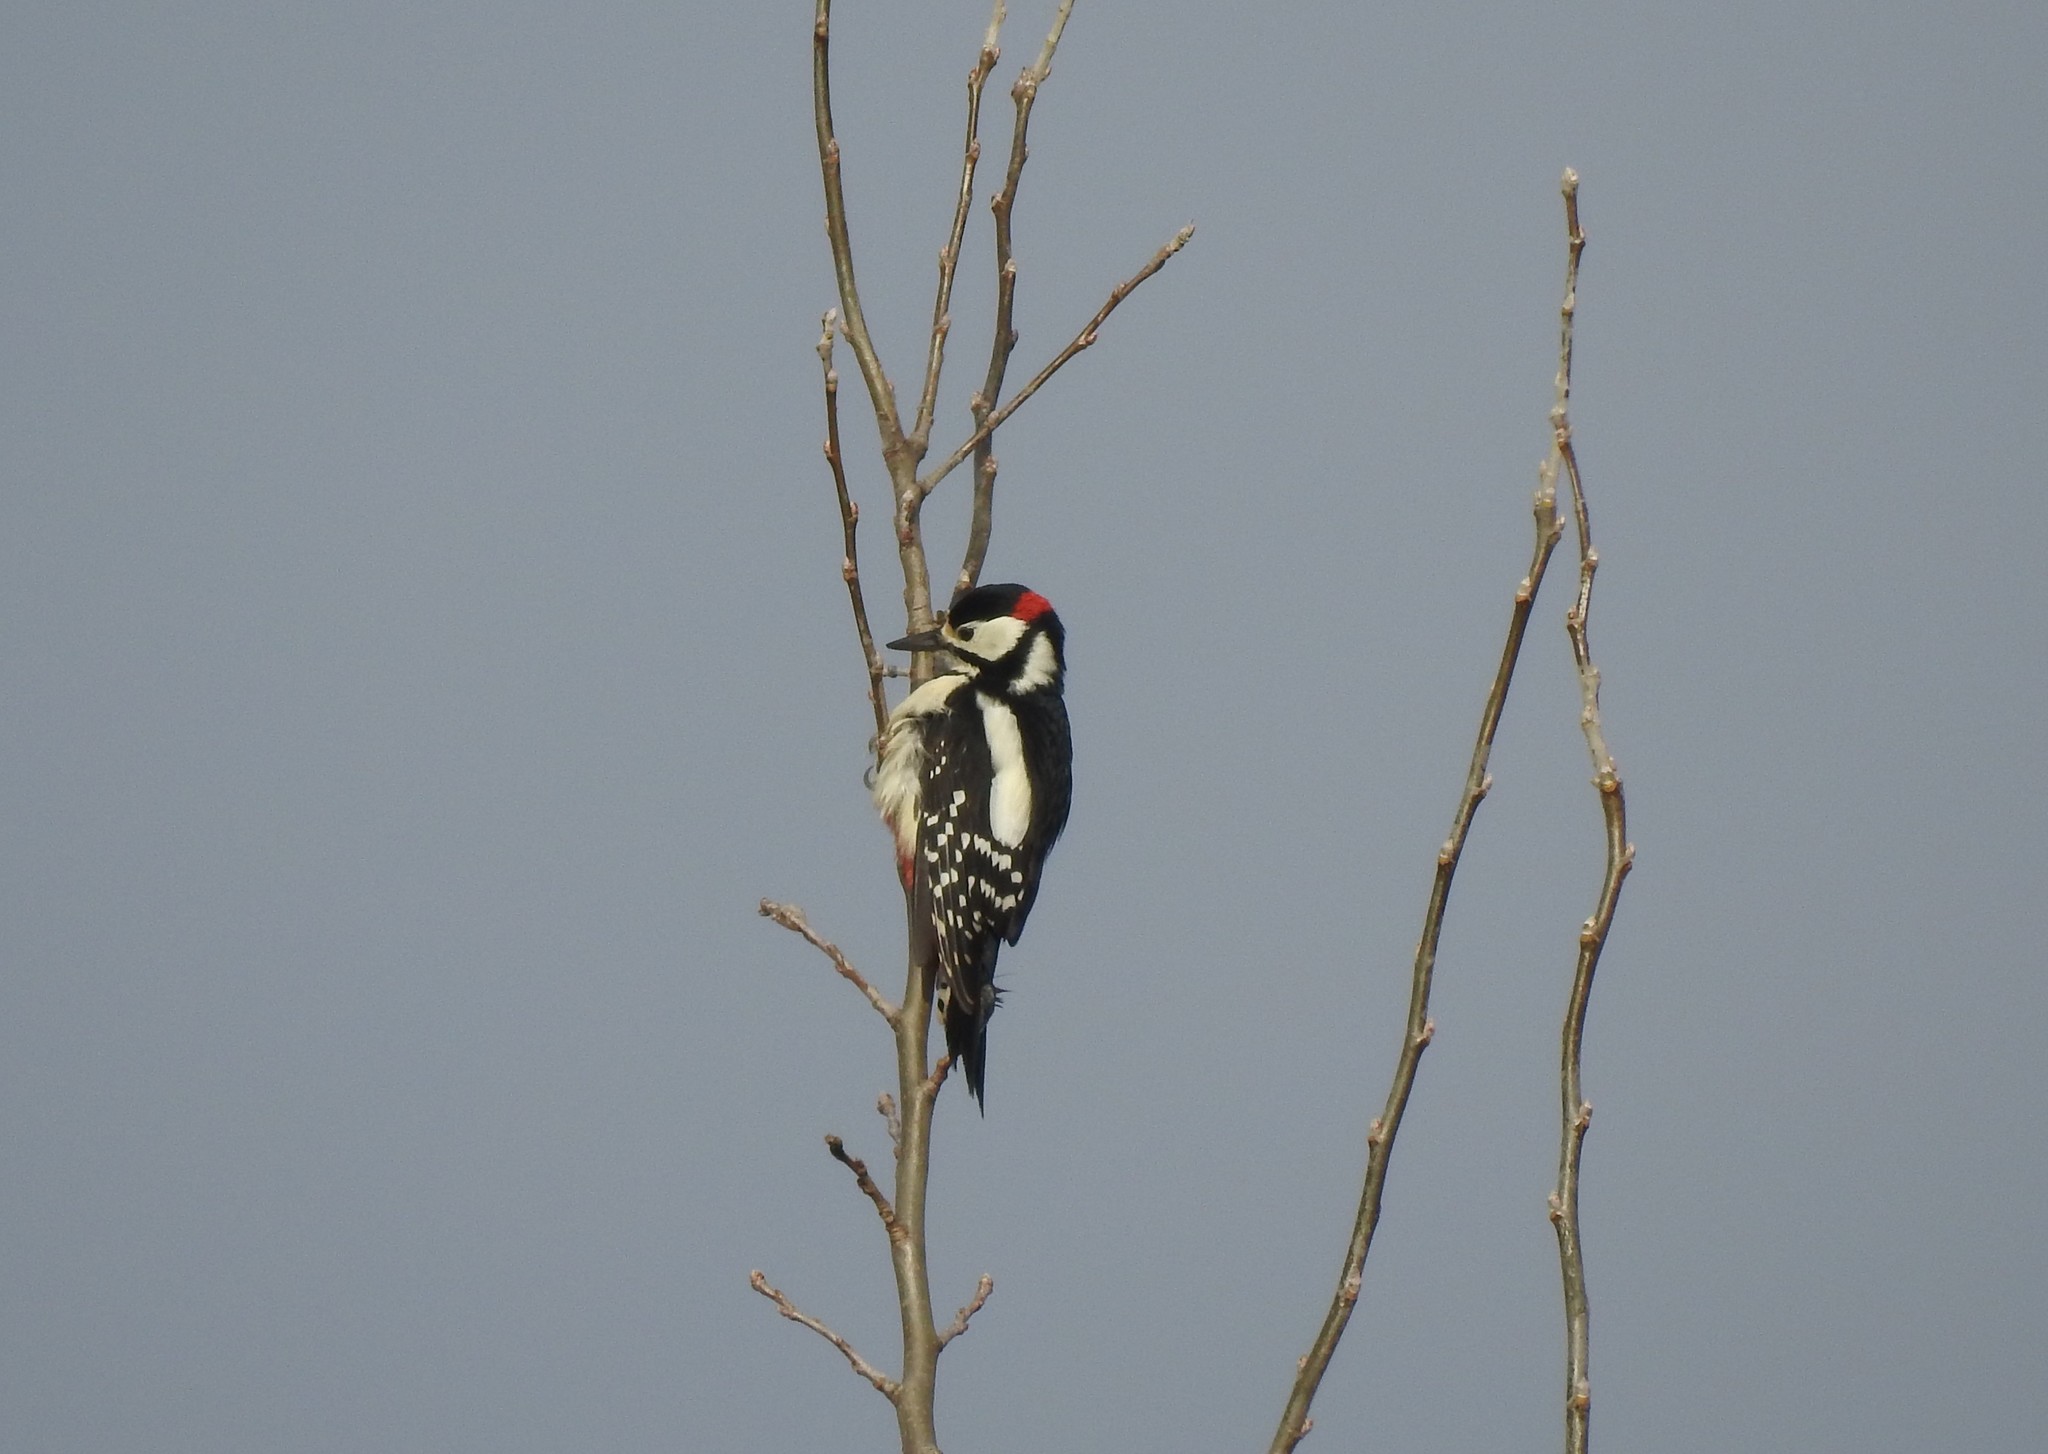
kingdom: Animalia
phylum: Chordata
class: Aves
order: Piciformes
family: Picidae
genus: Dendrocopos
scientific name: Dendrocopos major
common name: Great spotted woodpecker
